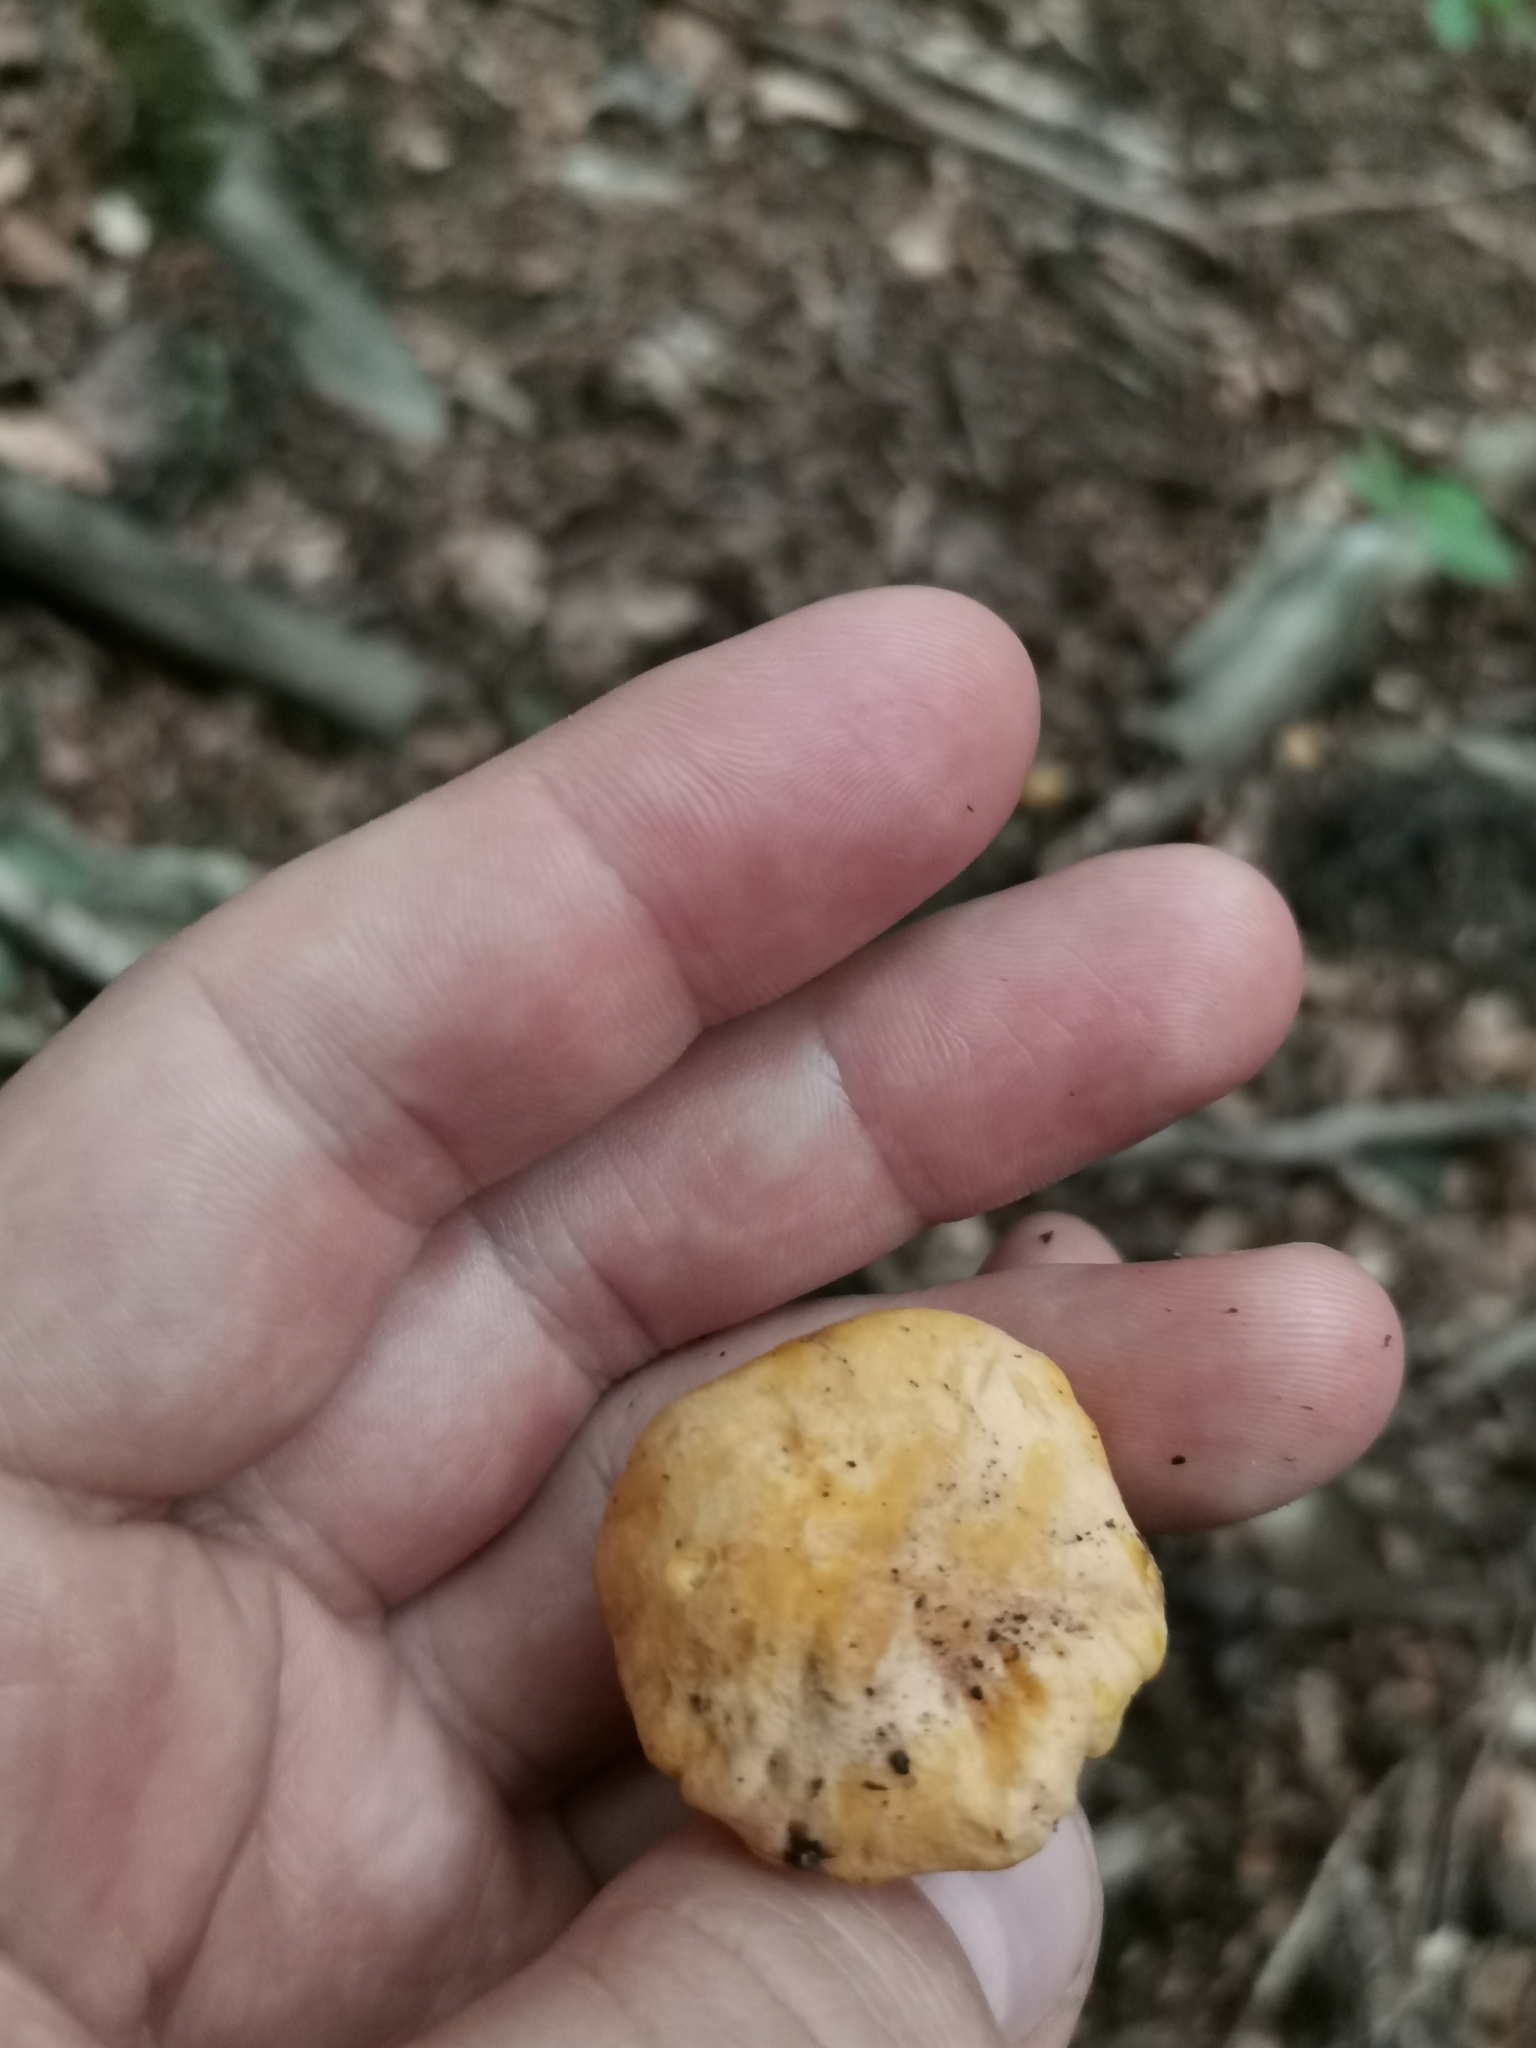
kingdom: Fungi
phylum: Basidiomycota
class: Agaricomycetes
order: Cantharellales
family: Hydnaceae
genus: Cantharellus
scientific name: Cantharellus pallens
